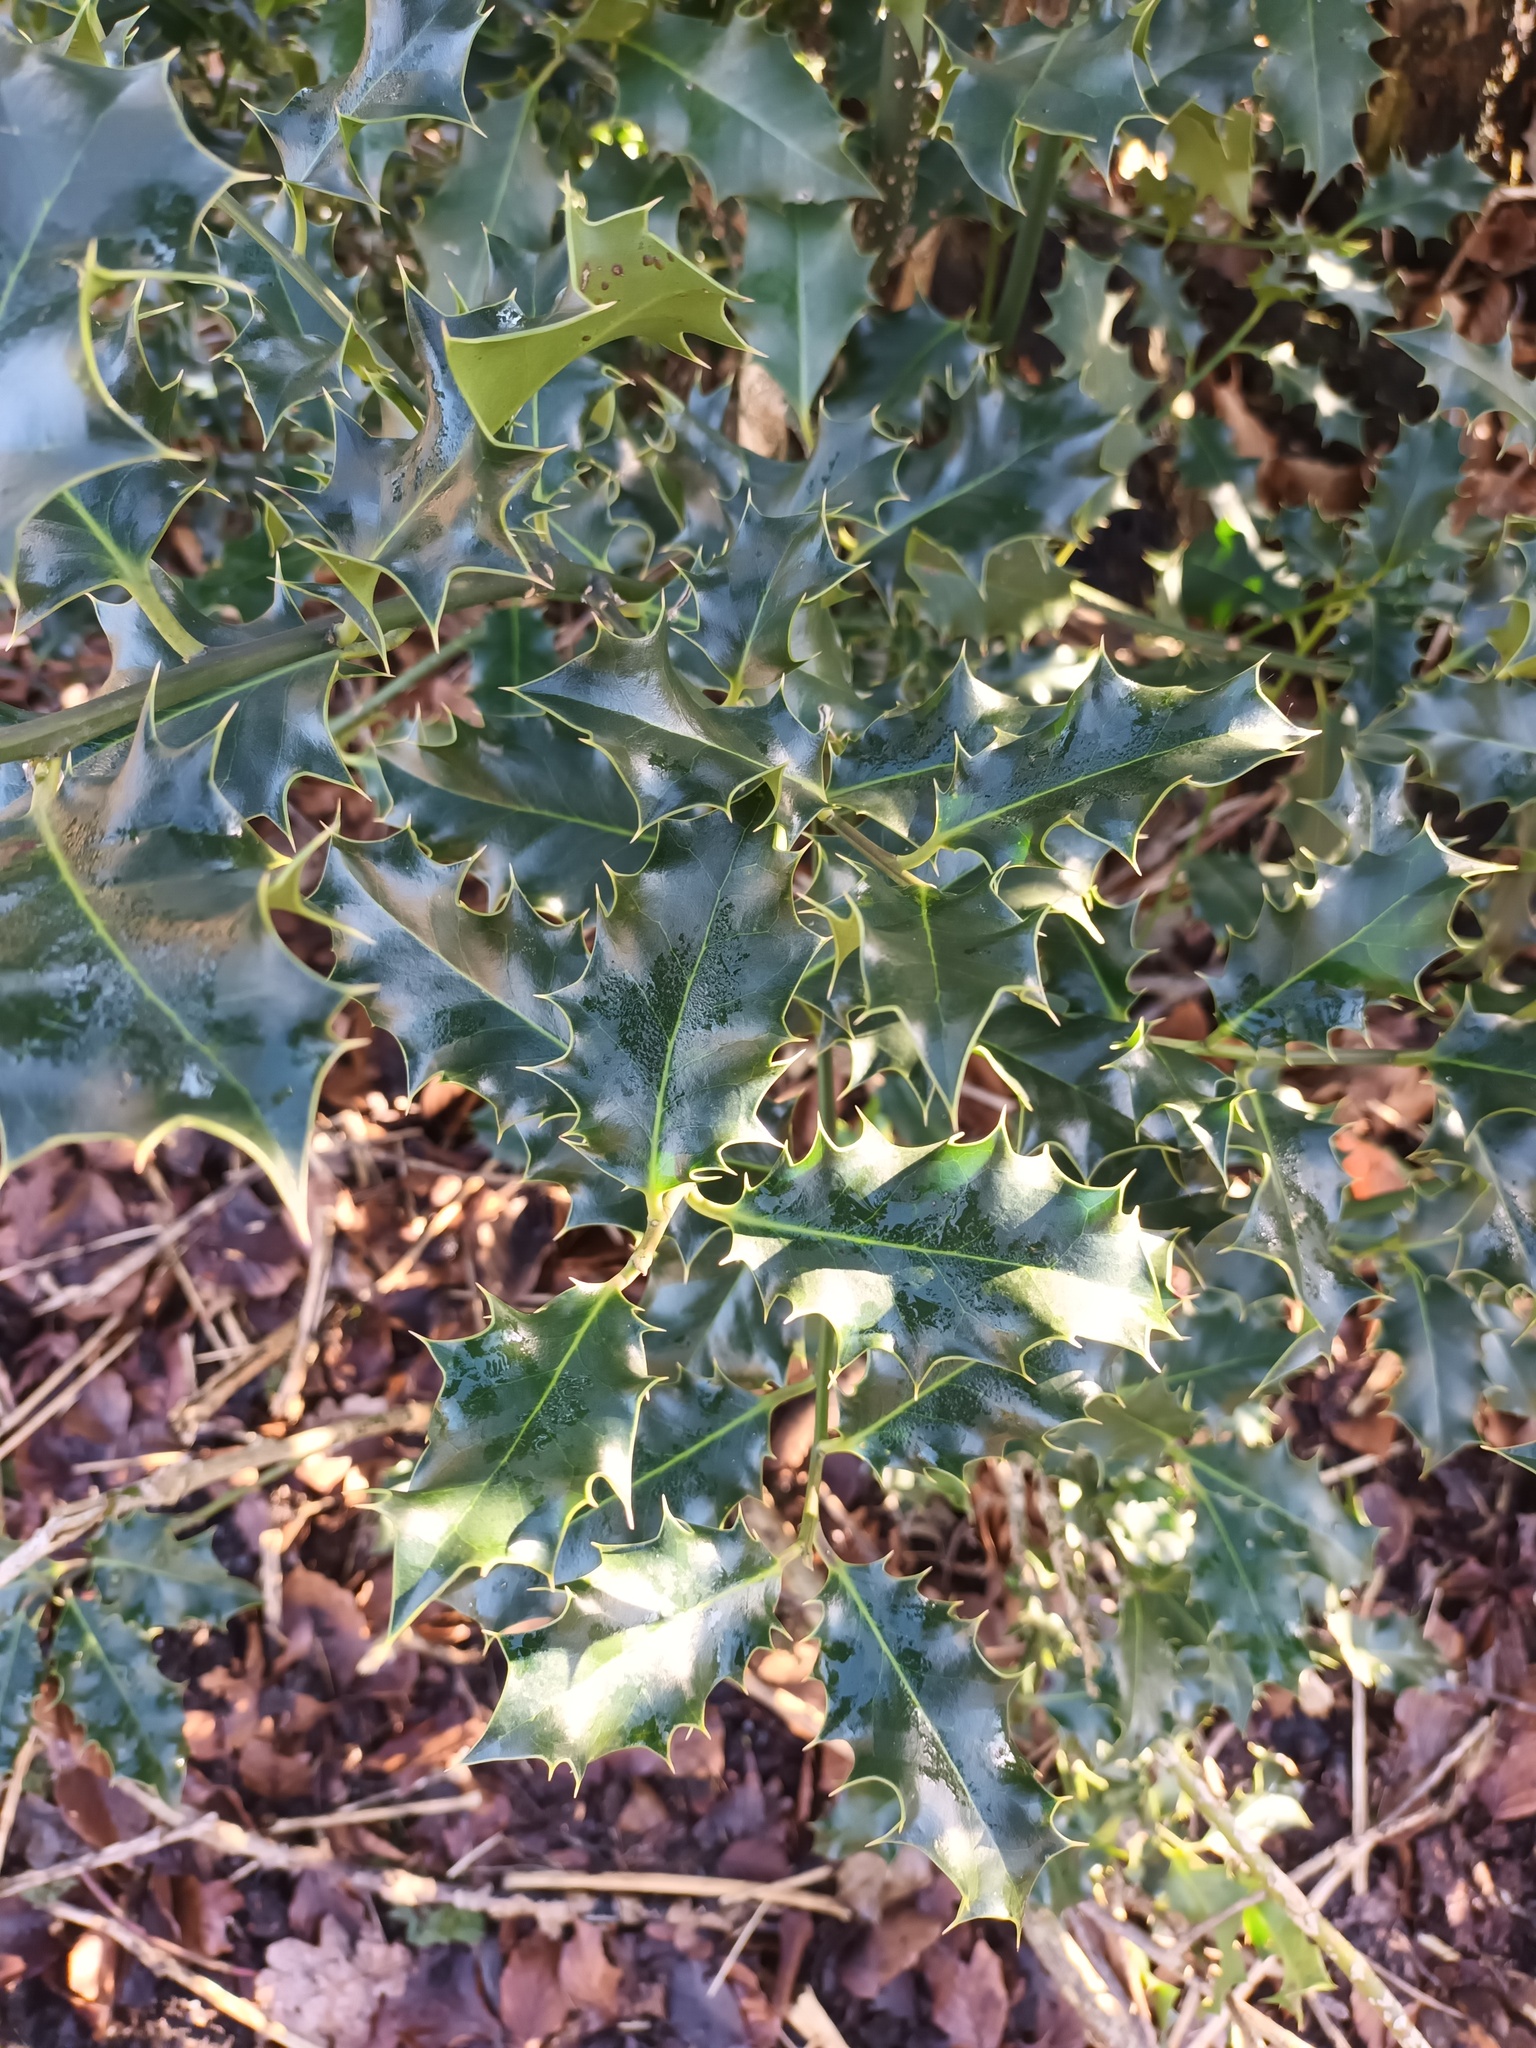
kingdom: Plantae
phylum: Tracheophyta
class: Magnoliopsida
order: Aquifoliales
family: Aquifoliaceae
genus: Ilex
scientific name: Ilex aquifolium
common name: English holly
